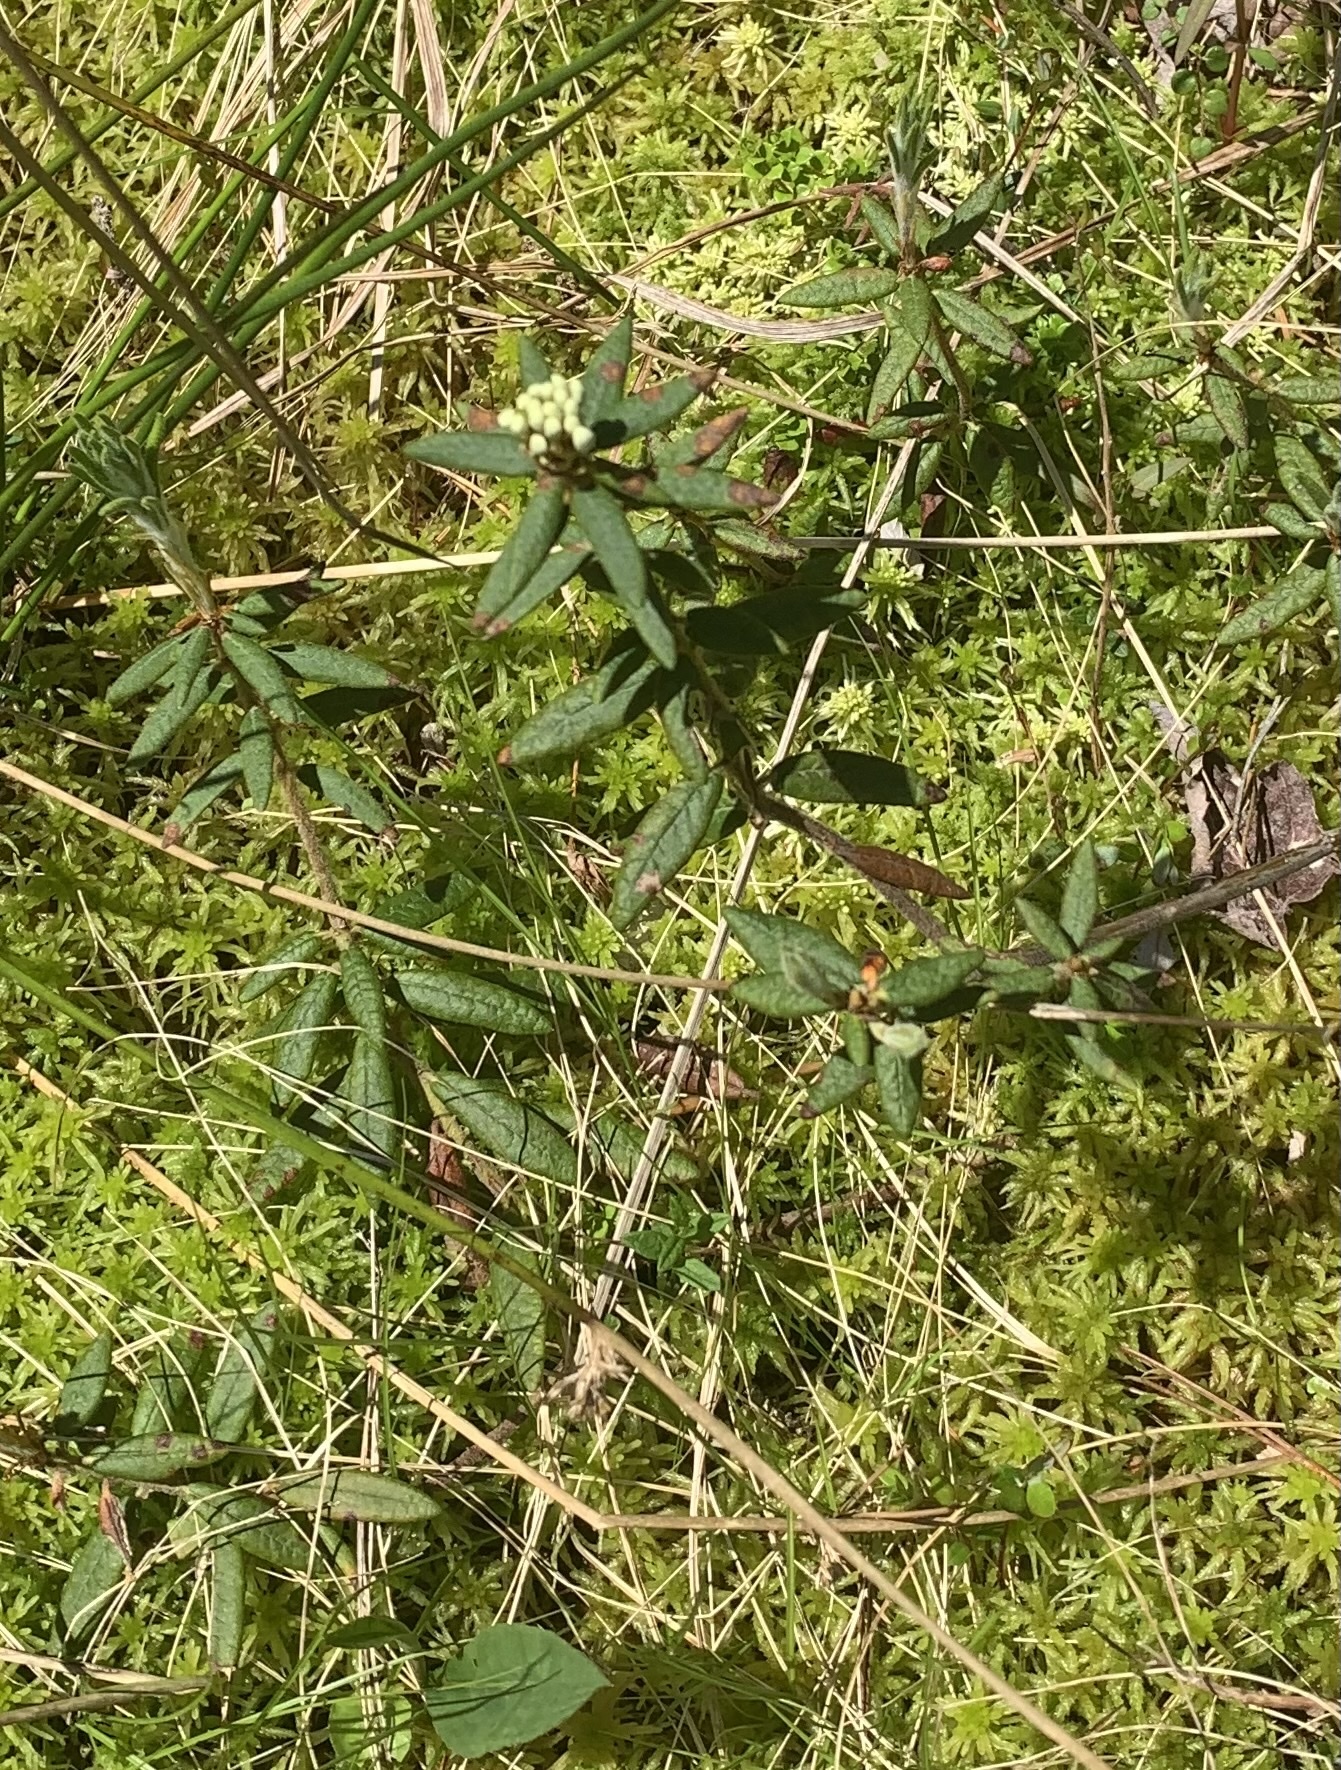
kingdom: Plantae
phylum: Tracheophyta
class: Magnoliopsida
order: Ericales
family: Ericaceae
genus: Rhododendron
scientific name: Rhododendron groenlandicum
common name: Bog labrador tea
